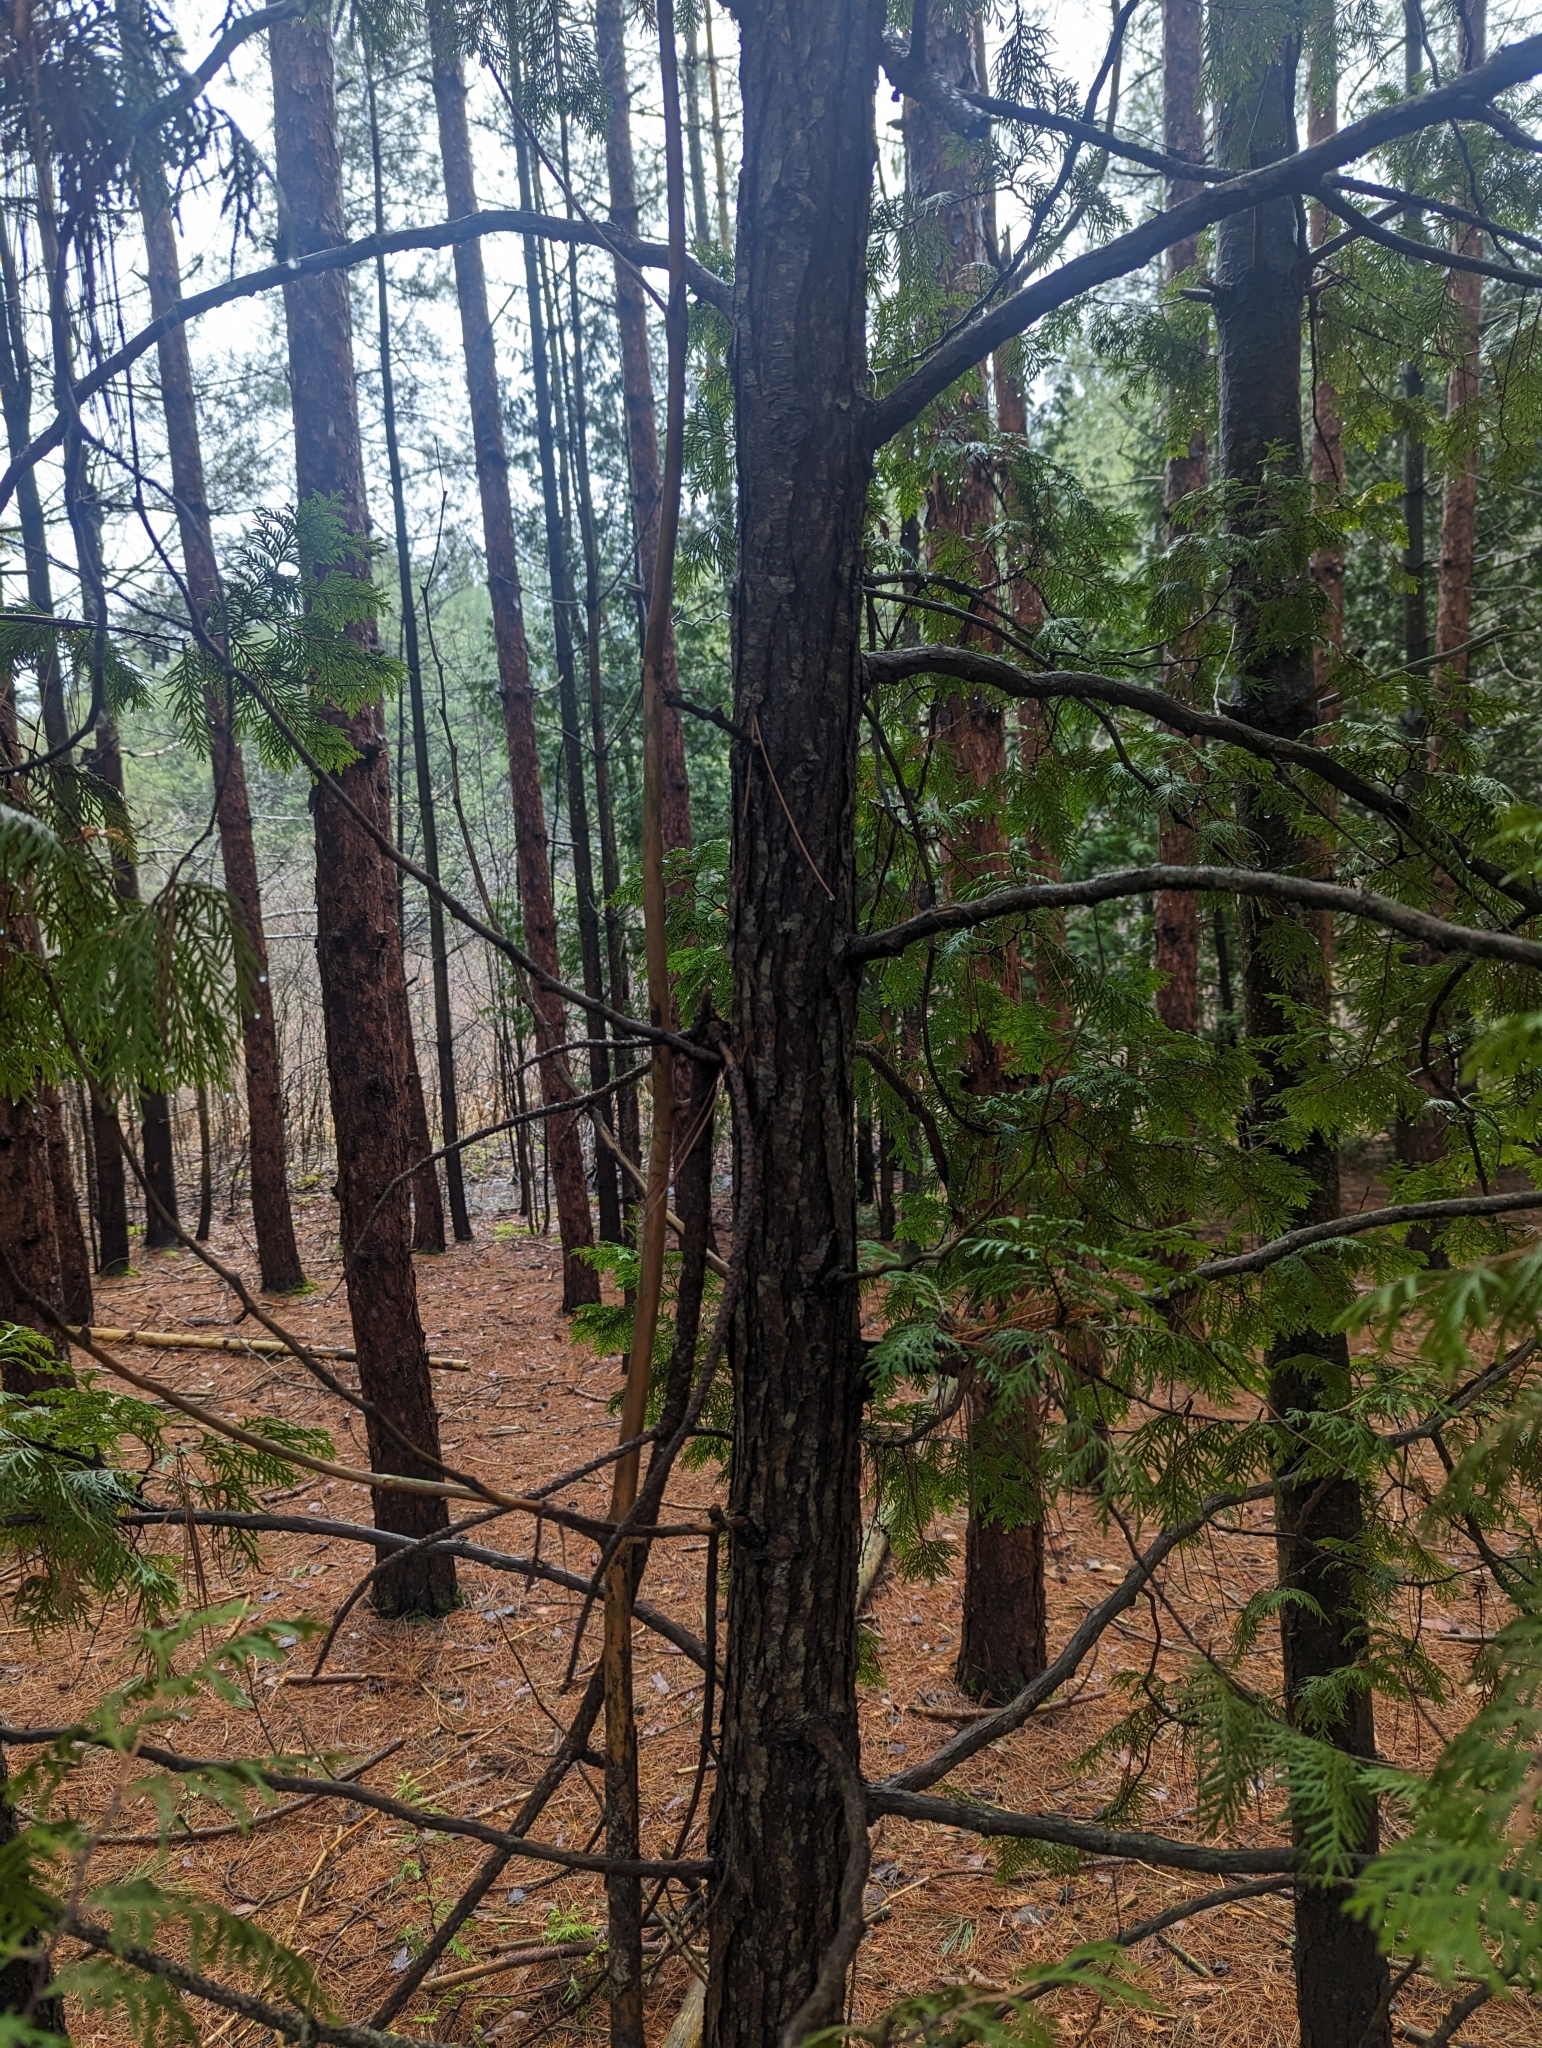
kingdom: Plantae
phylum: Tracheophyta
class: Pinopsida
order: Pinales
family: Cupressaceae
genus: Thuja
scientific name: Thuja occidentalis
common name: Northern white-cedar
